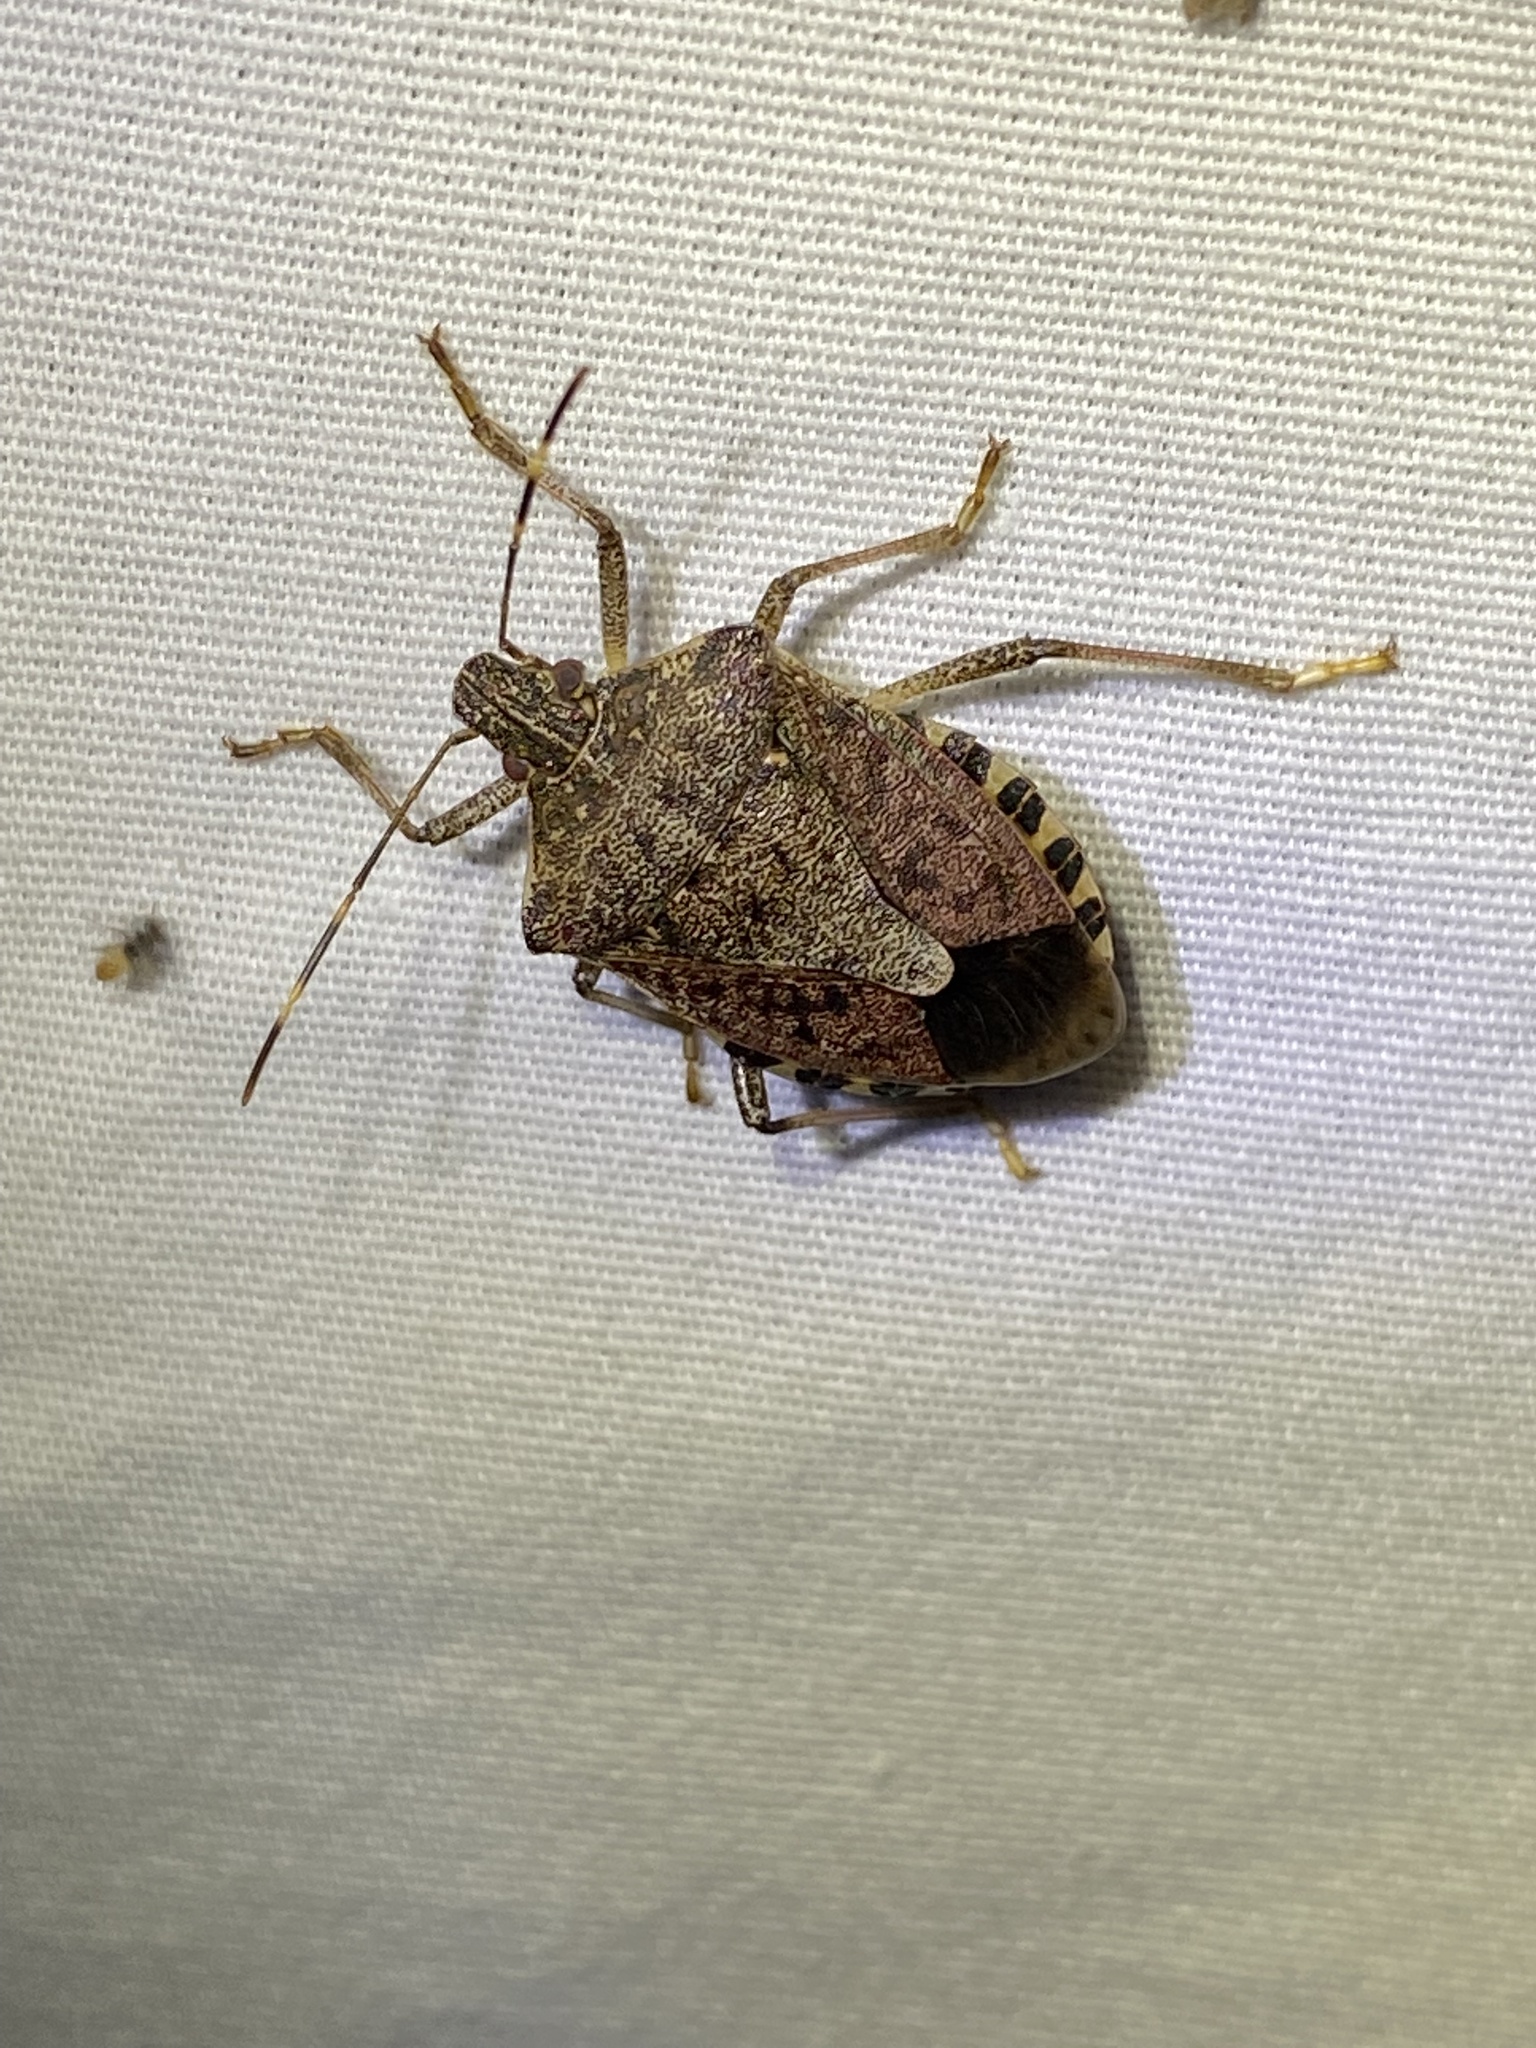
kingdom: Animalia
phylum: Arthropoda
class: Insecta
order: Hemiptera
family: Pentatomidae
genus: Halyomorpha
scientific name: Halyomorpha halys
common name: Brown marmorated stink bug
